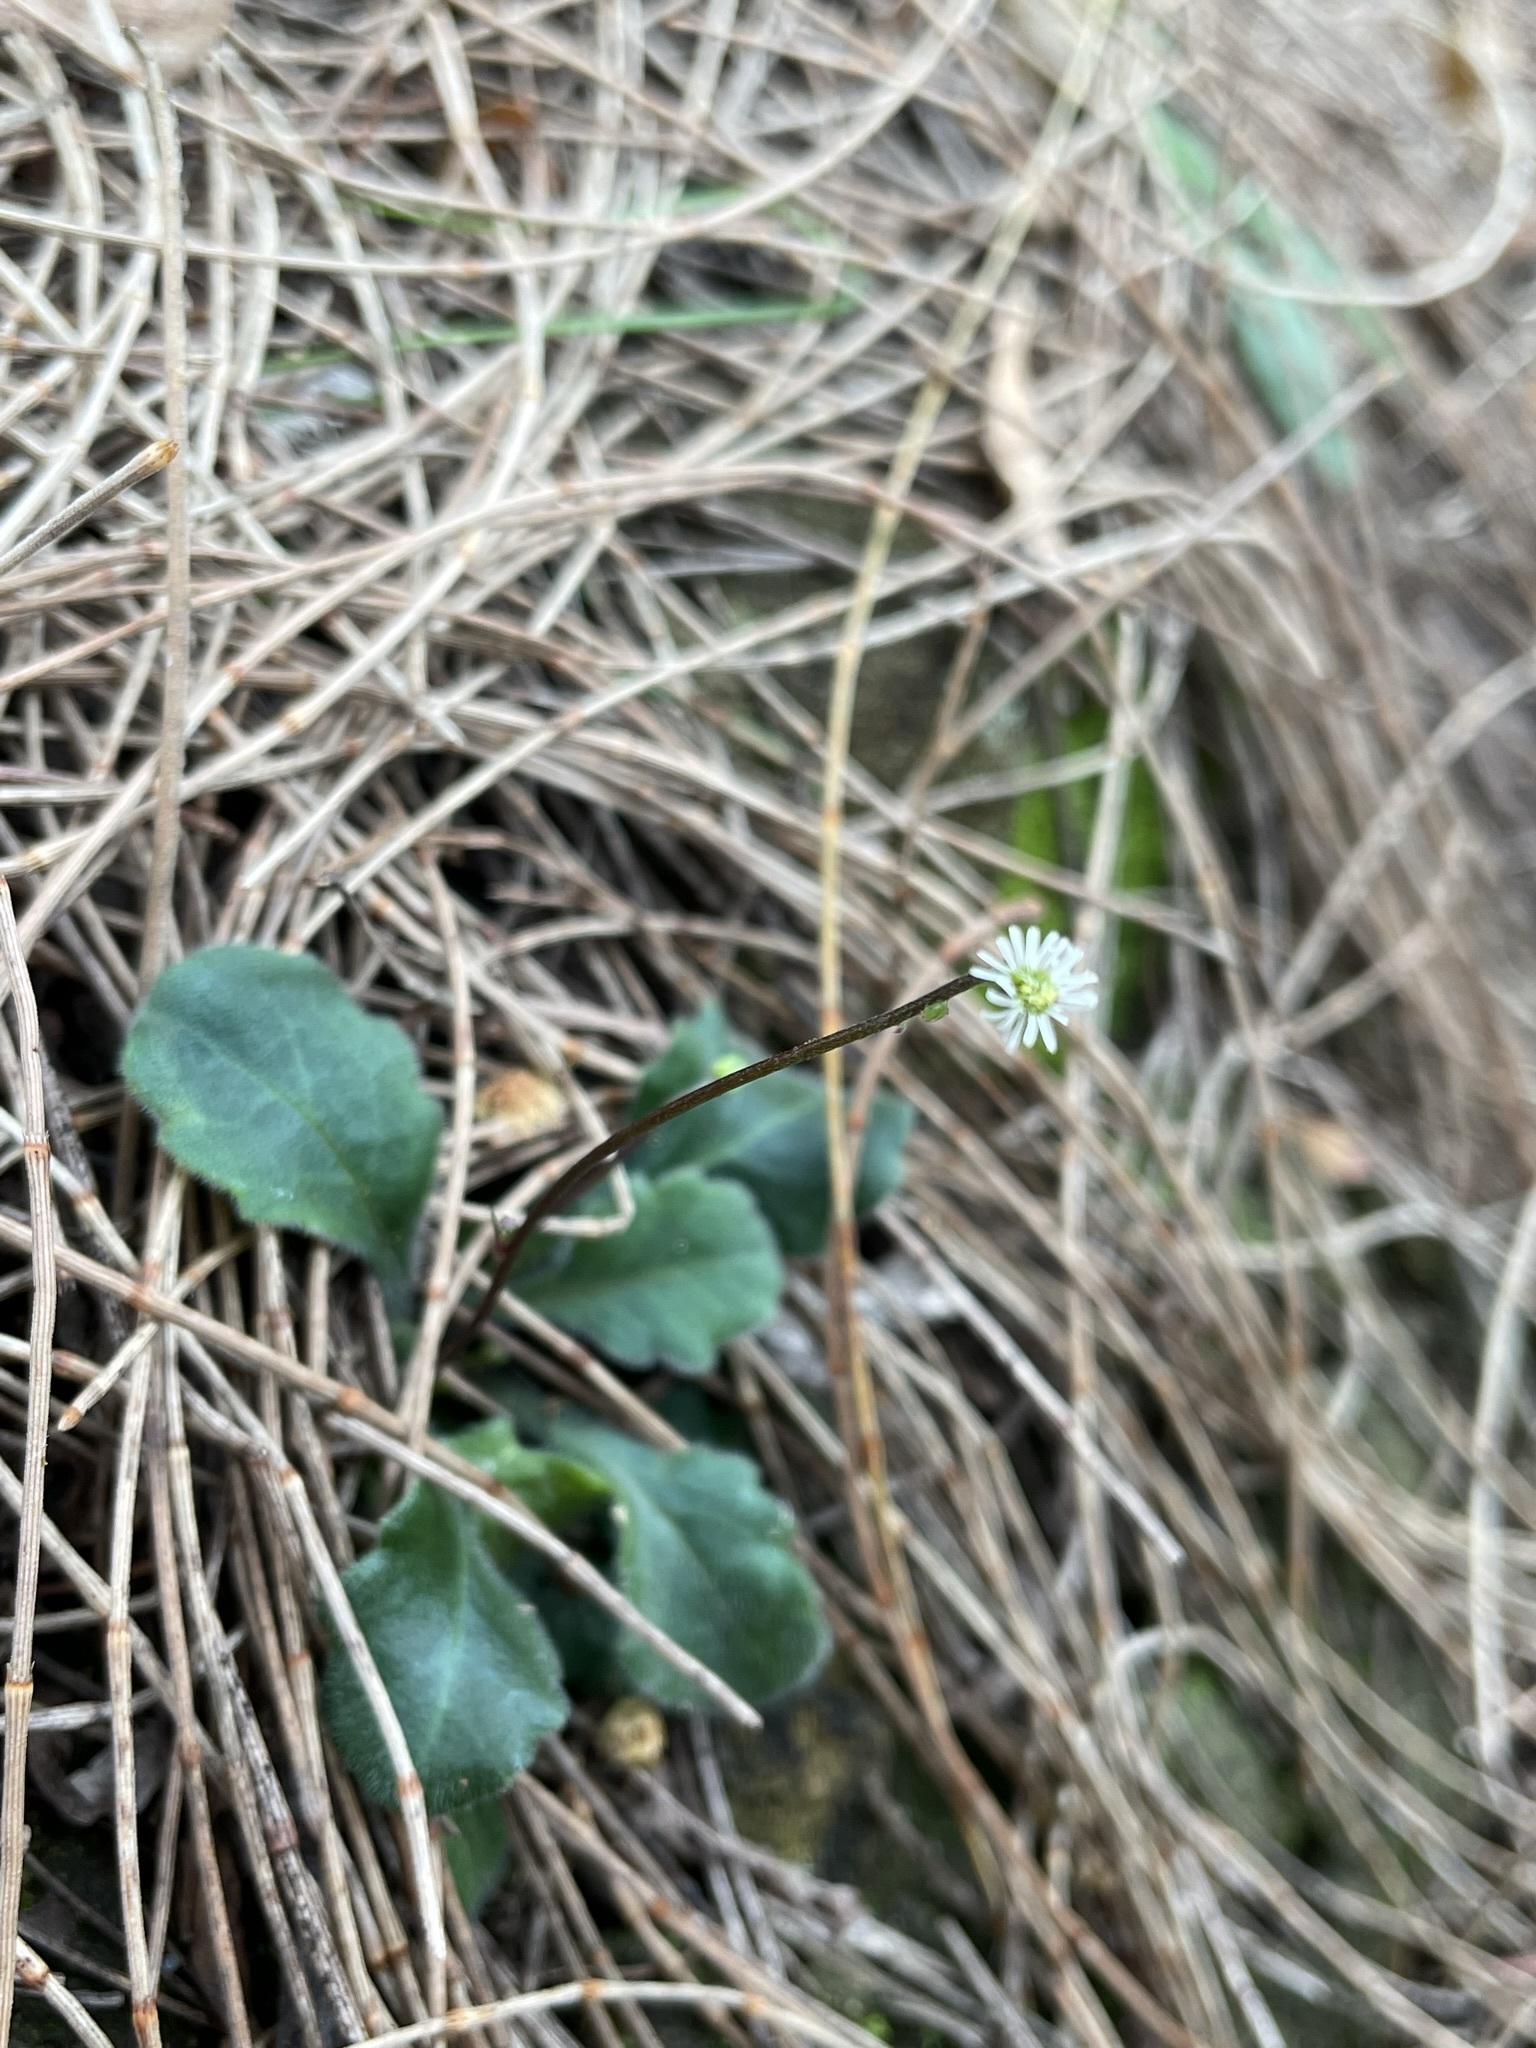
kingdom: Plantae
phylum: Tracheophyta
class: Magnoliopsida
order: Asterales
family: Asteraceae
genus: Lagenophora
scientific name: Lagenophora sublyrata ter
